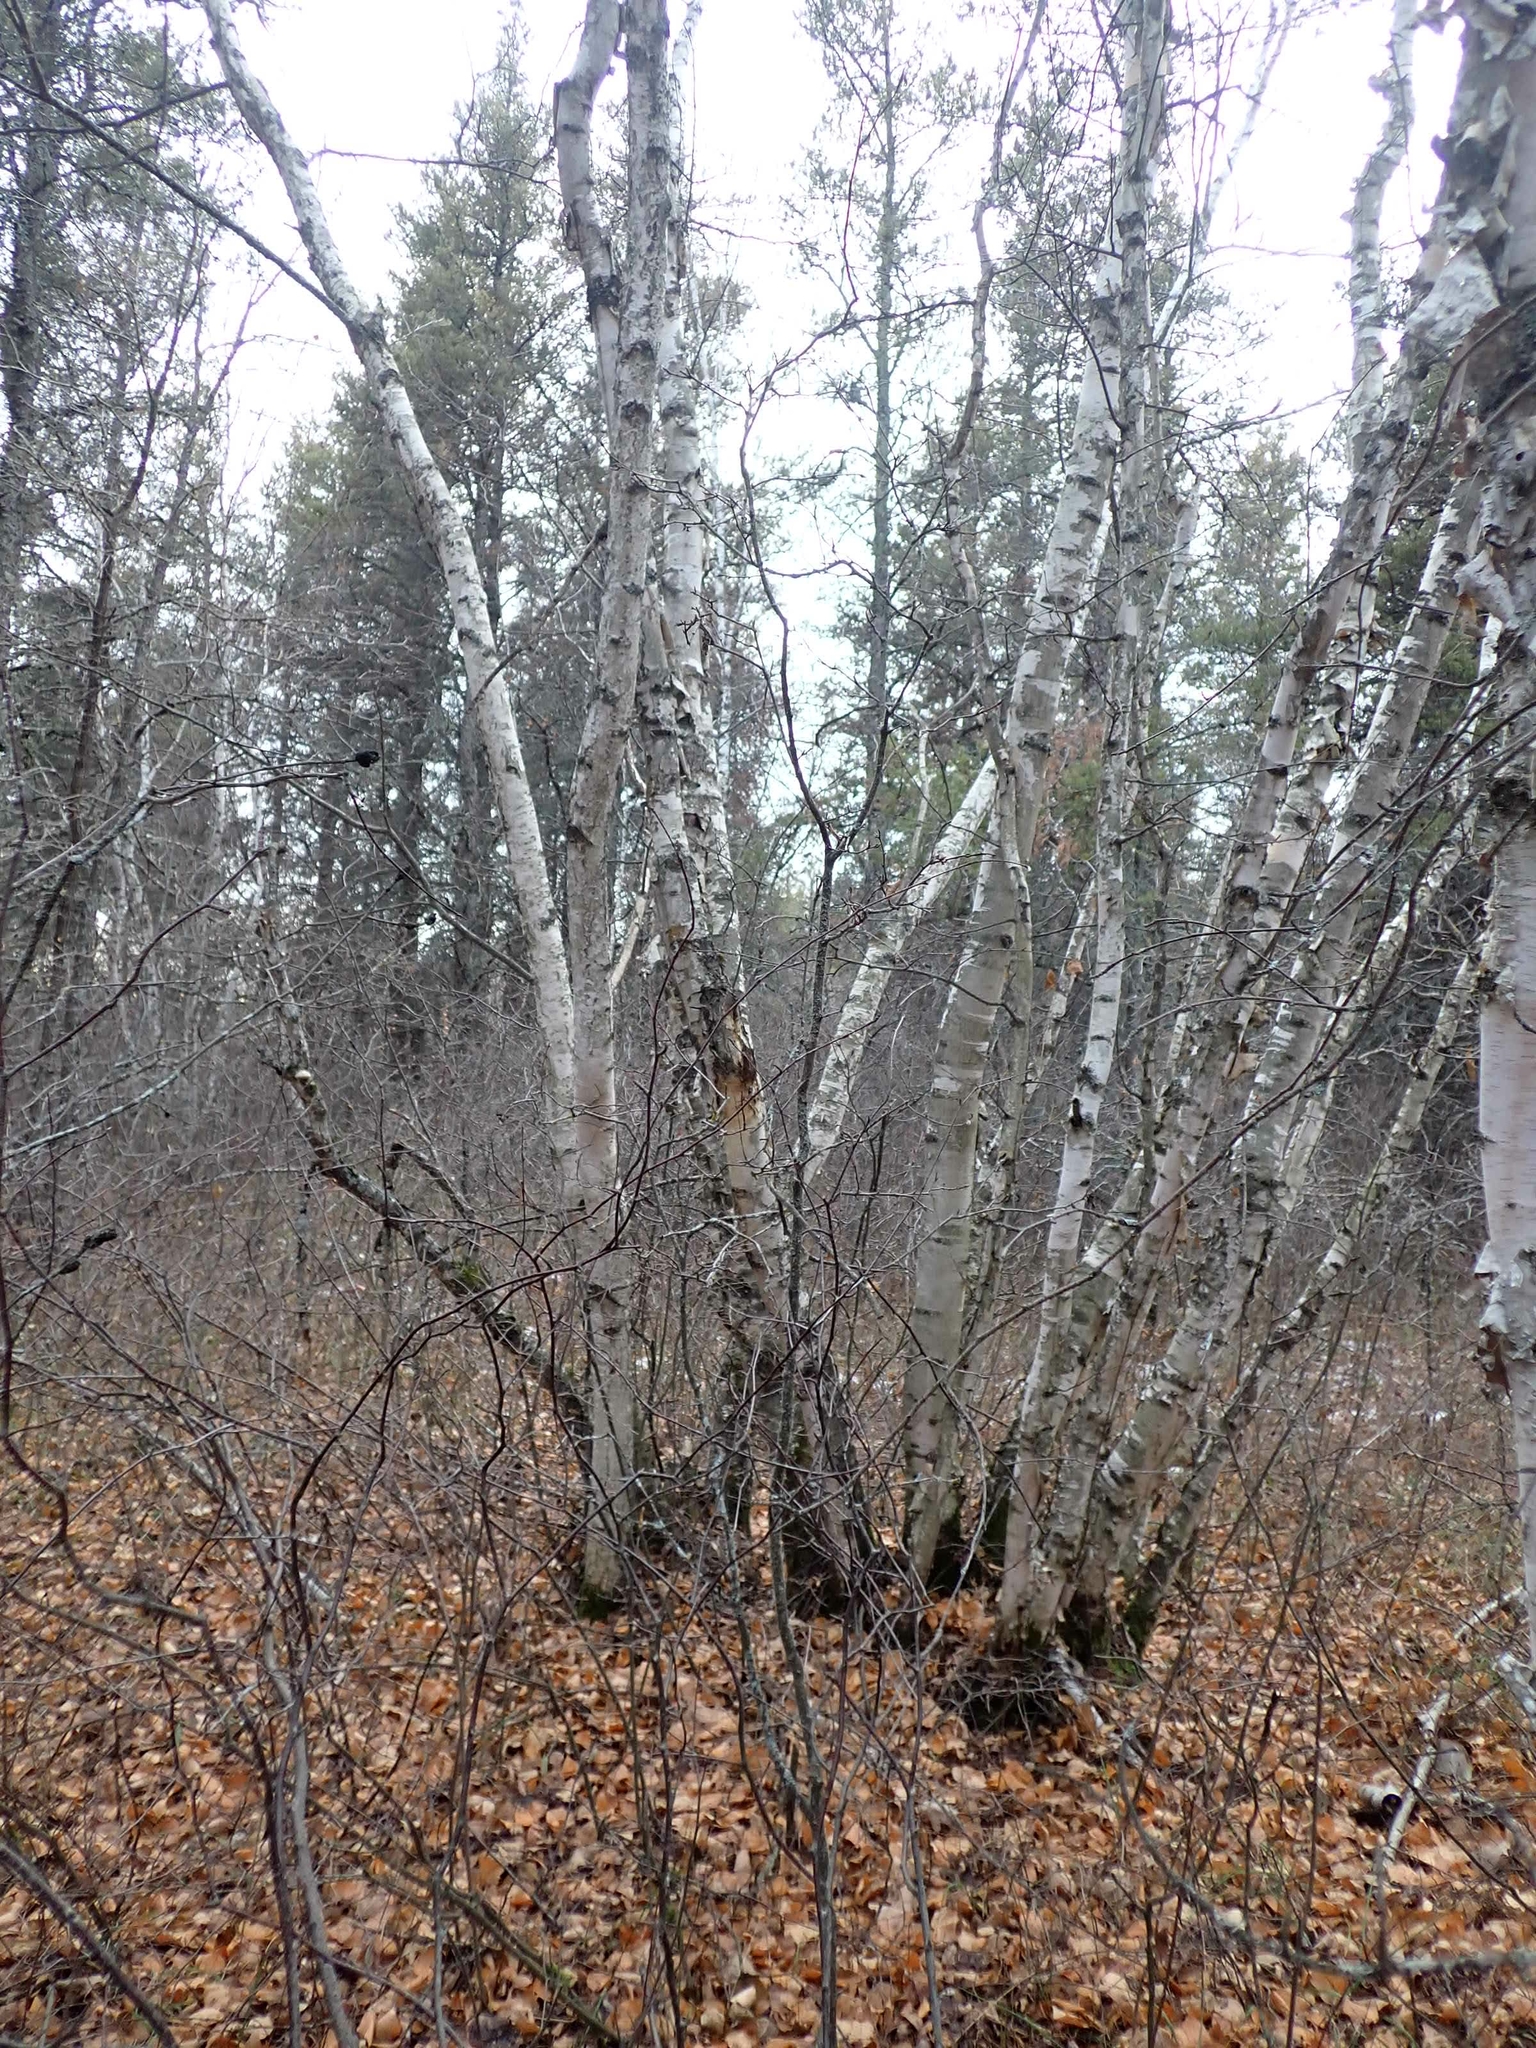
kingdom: Plantae
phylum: Tracheophyta
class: Magnoliopsida
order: Fagales
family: Betulaceae
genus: Betula
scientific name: Betula papyrifera
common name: Paper birch
